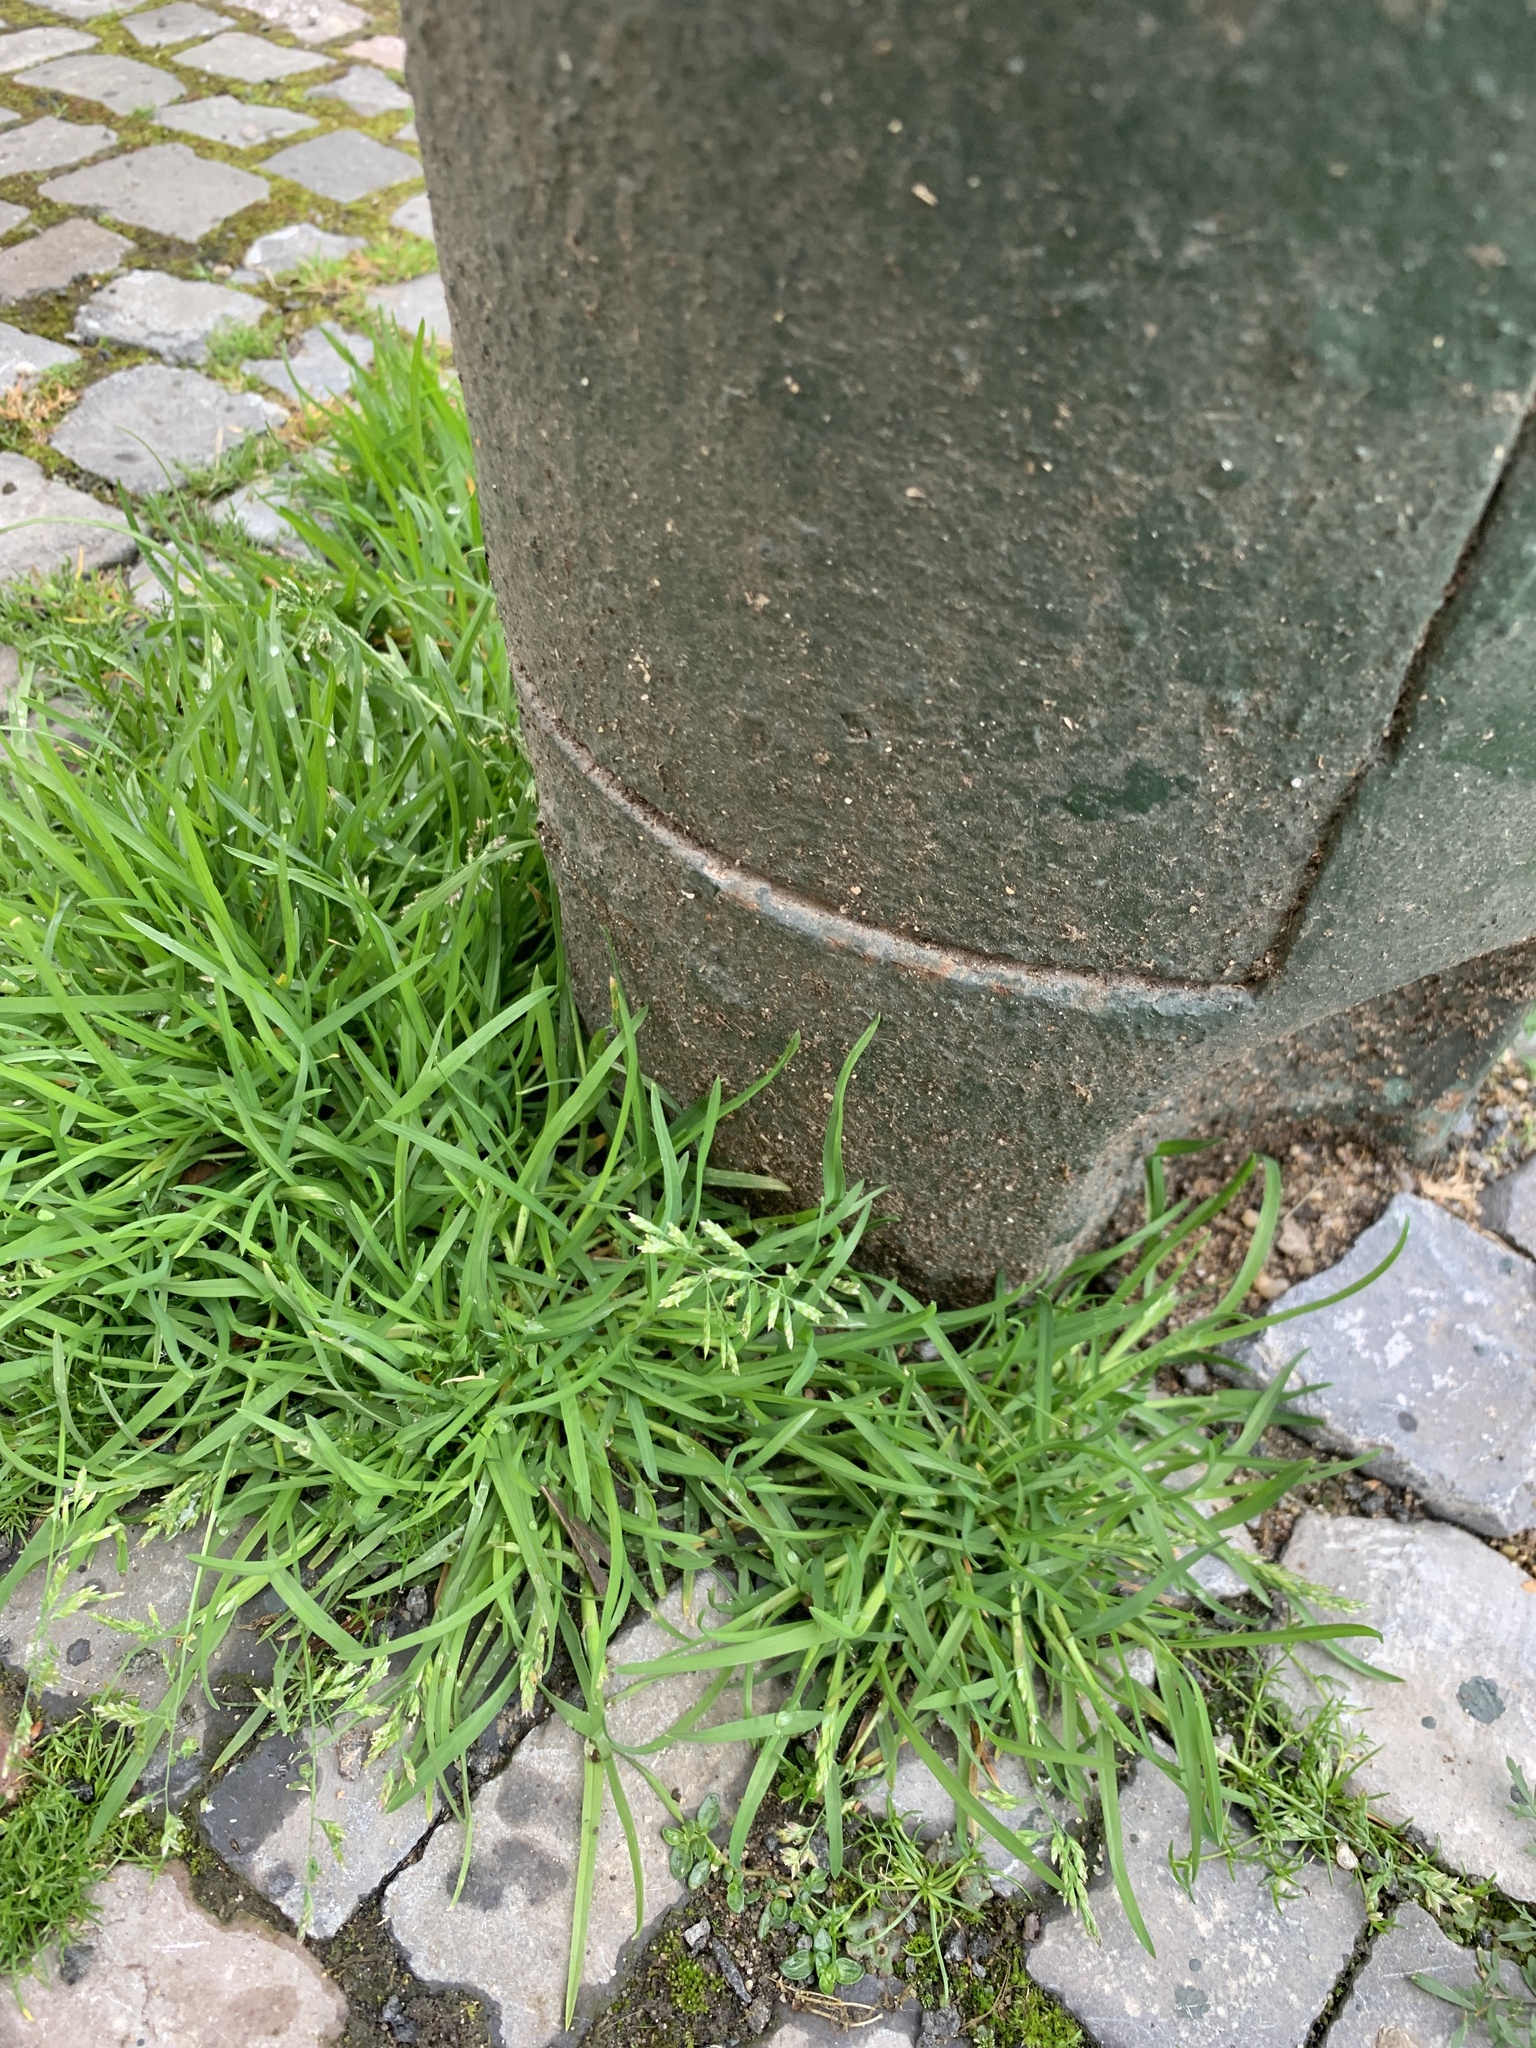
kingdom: Plantae
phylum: Tracheophyta
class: Liliopsida
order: Poales
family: Poaceae
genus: Poa
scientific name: Poa annua
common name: Annual bluegrass
